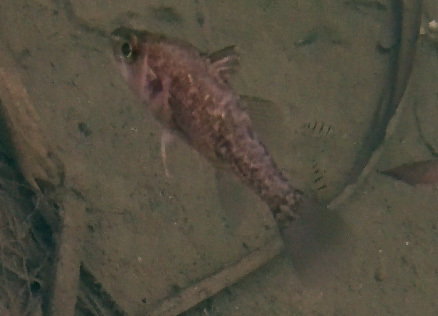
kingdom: Animalia
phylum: Chordata
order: Perciformes
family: Apogonidae
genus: Glossamia
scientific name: Glossamia aprion
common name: Mouth almighty
